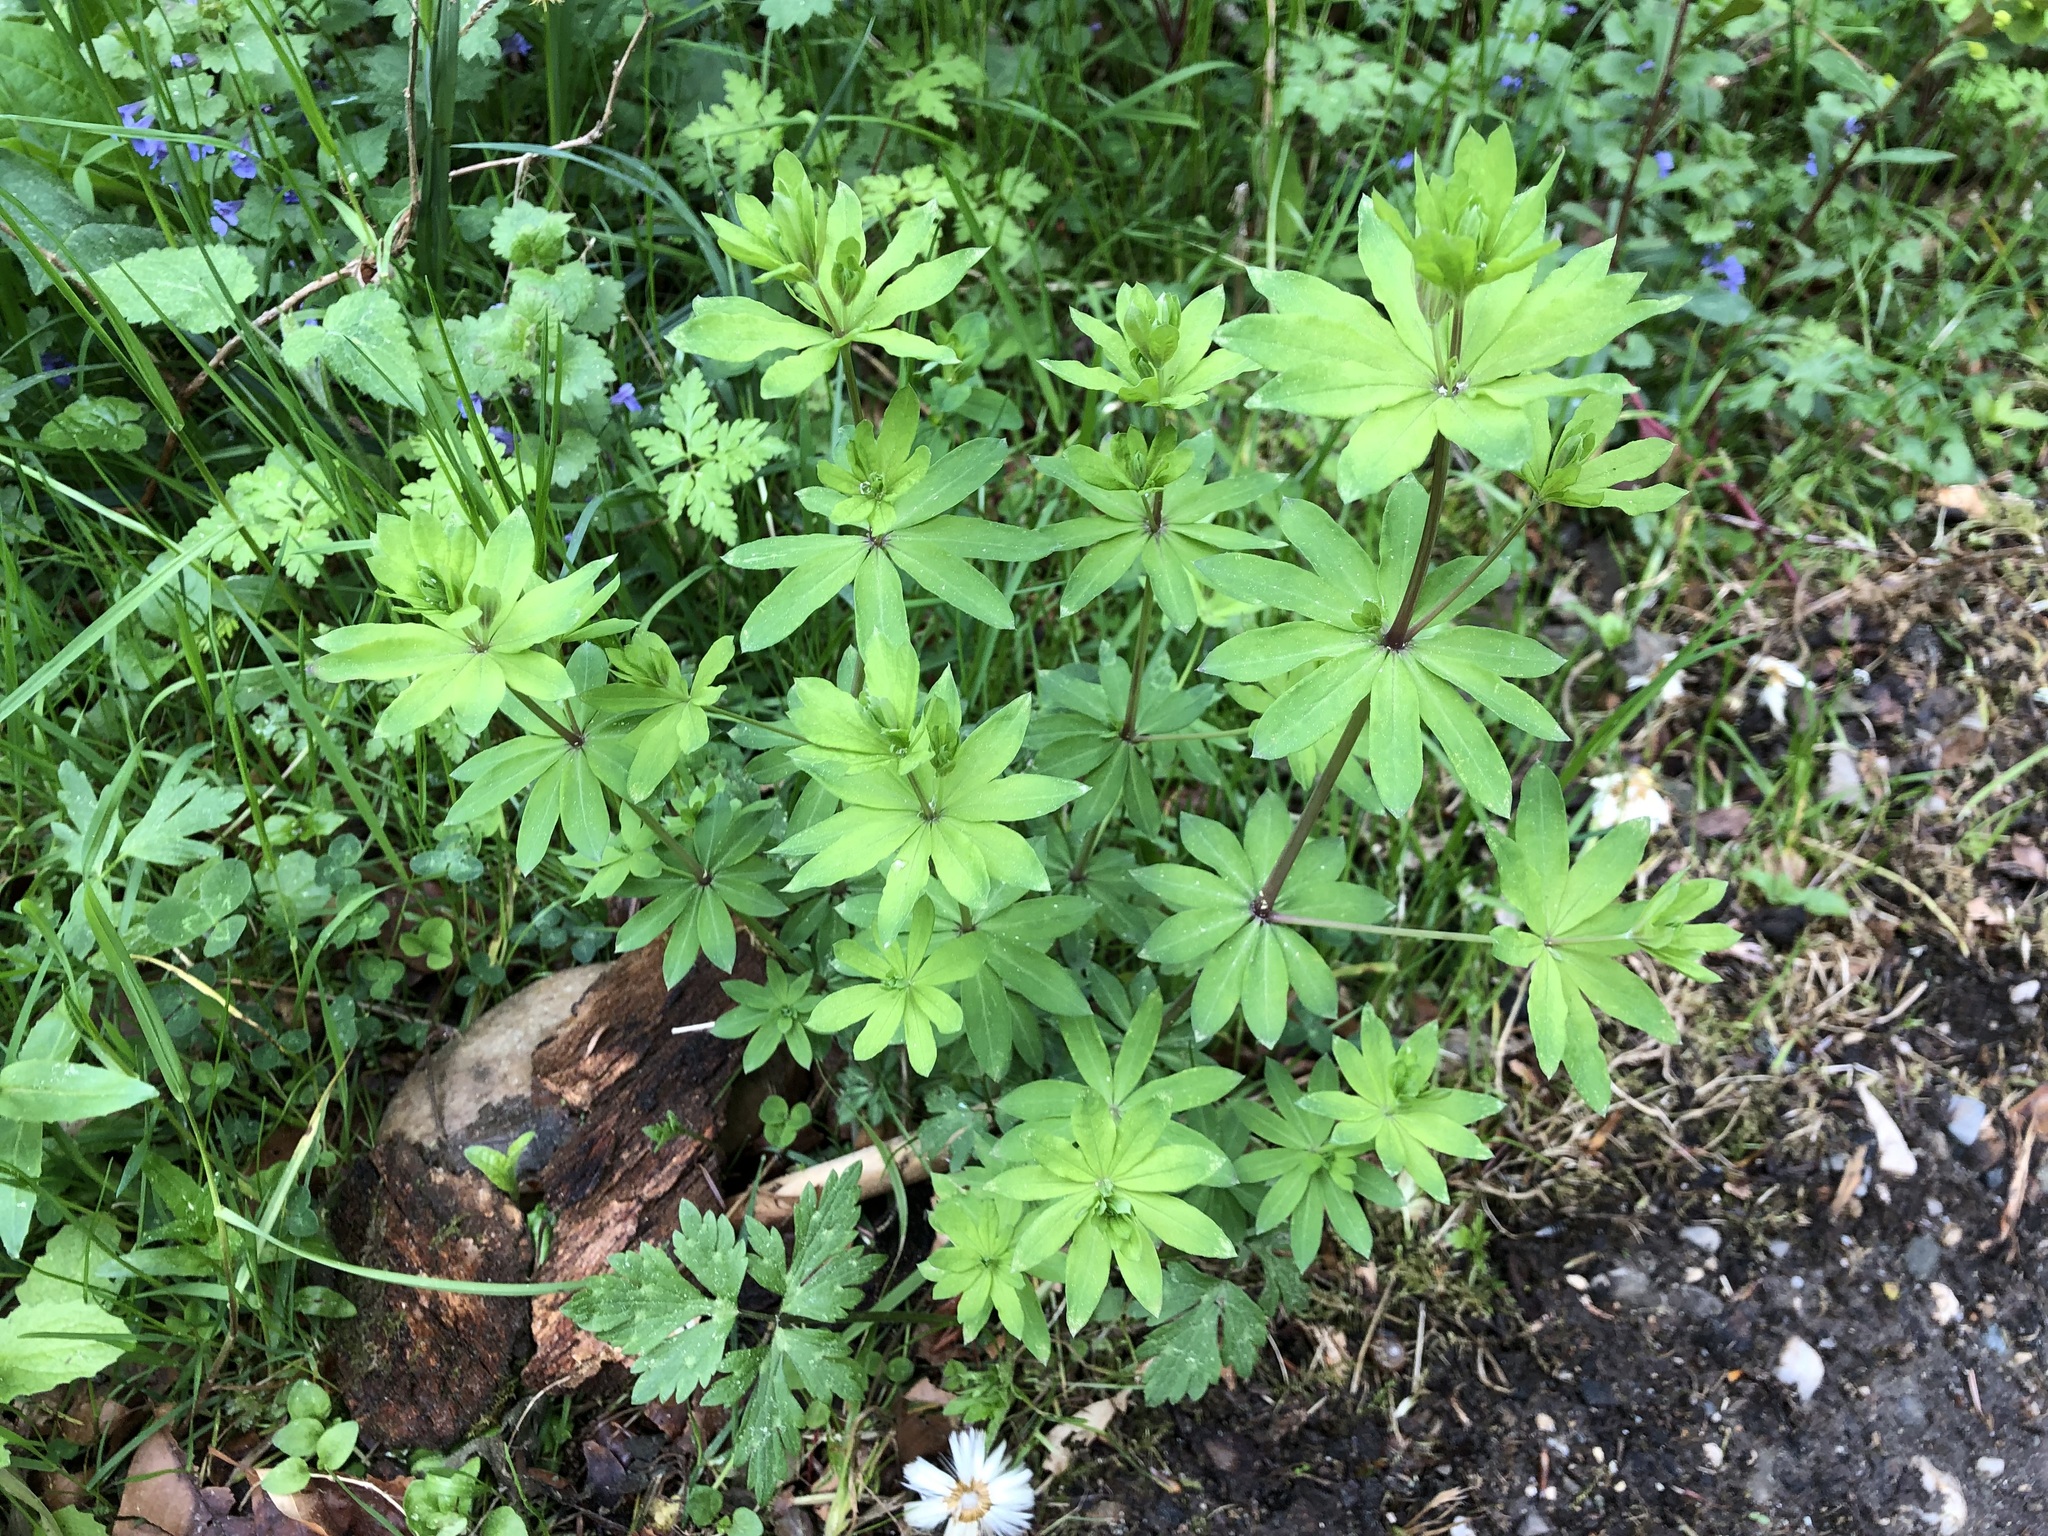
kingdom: Plantae
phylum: Tracheophyta
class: Magnoliopsida
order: Gentianales
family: Rubiaceae
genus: Galium
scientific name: Galium sylvaticum
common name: Wood bedstraw
